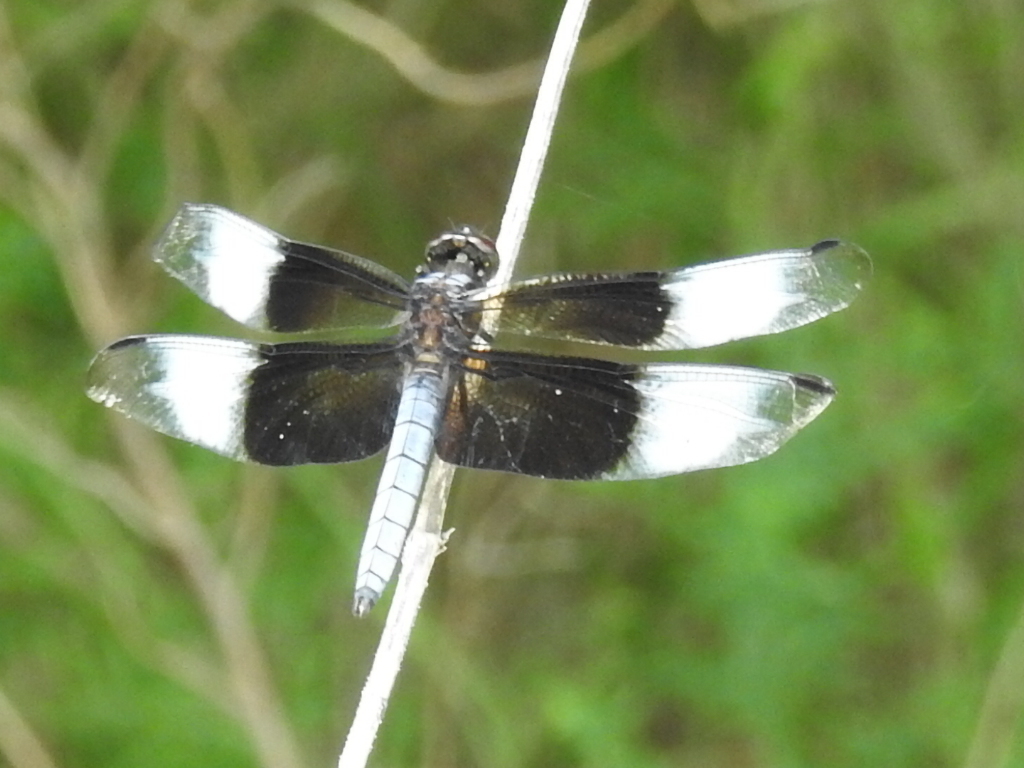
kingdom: Animalia
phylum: Arthropoda
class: Insecta
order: Odonata
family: Libellulidae
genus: Libellula
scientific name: Libellula luctuosa
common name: Widow skimmer
